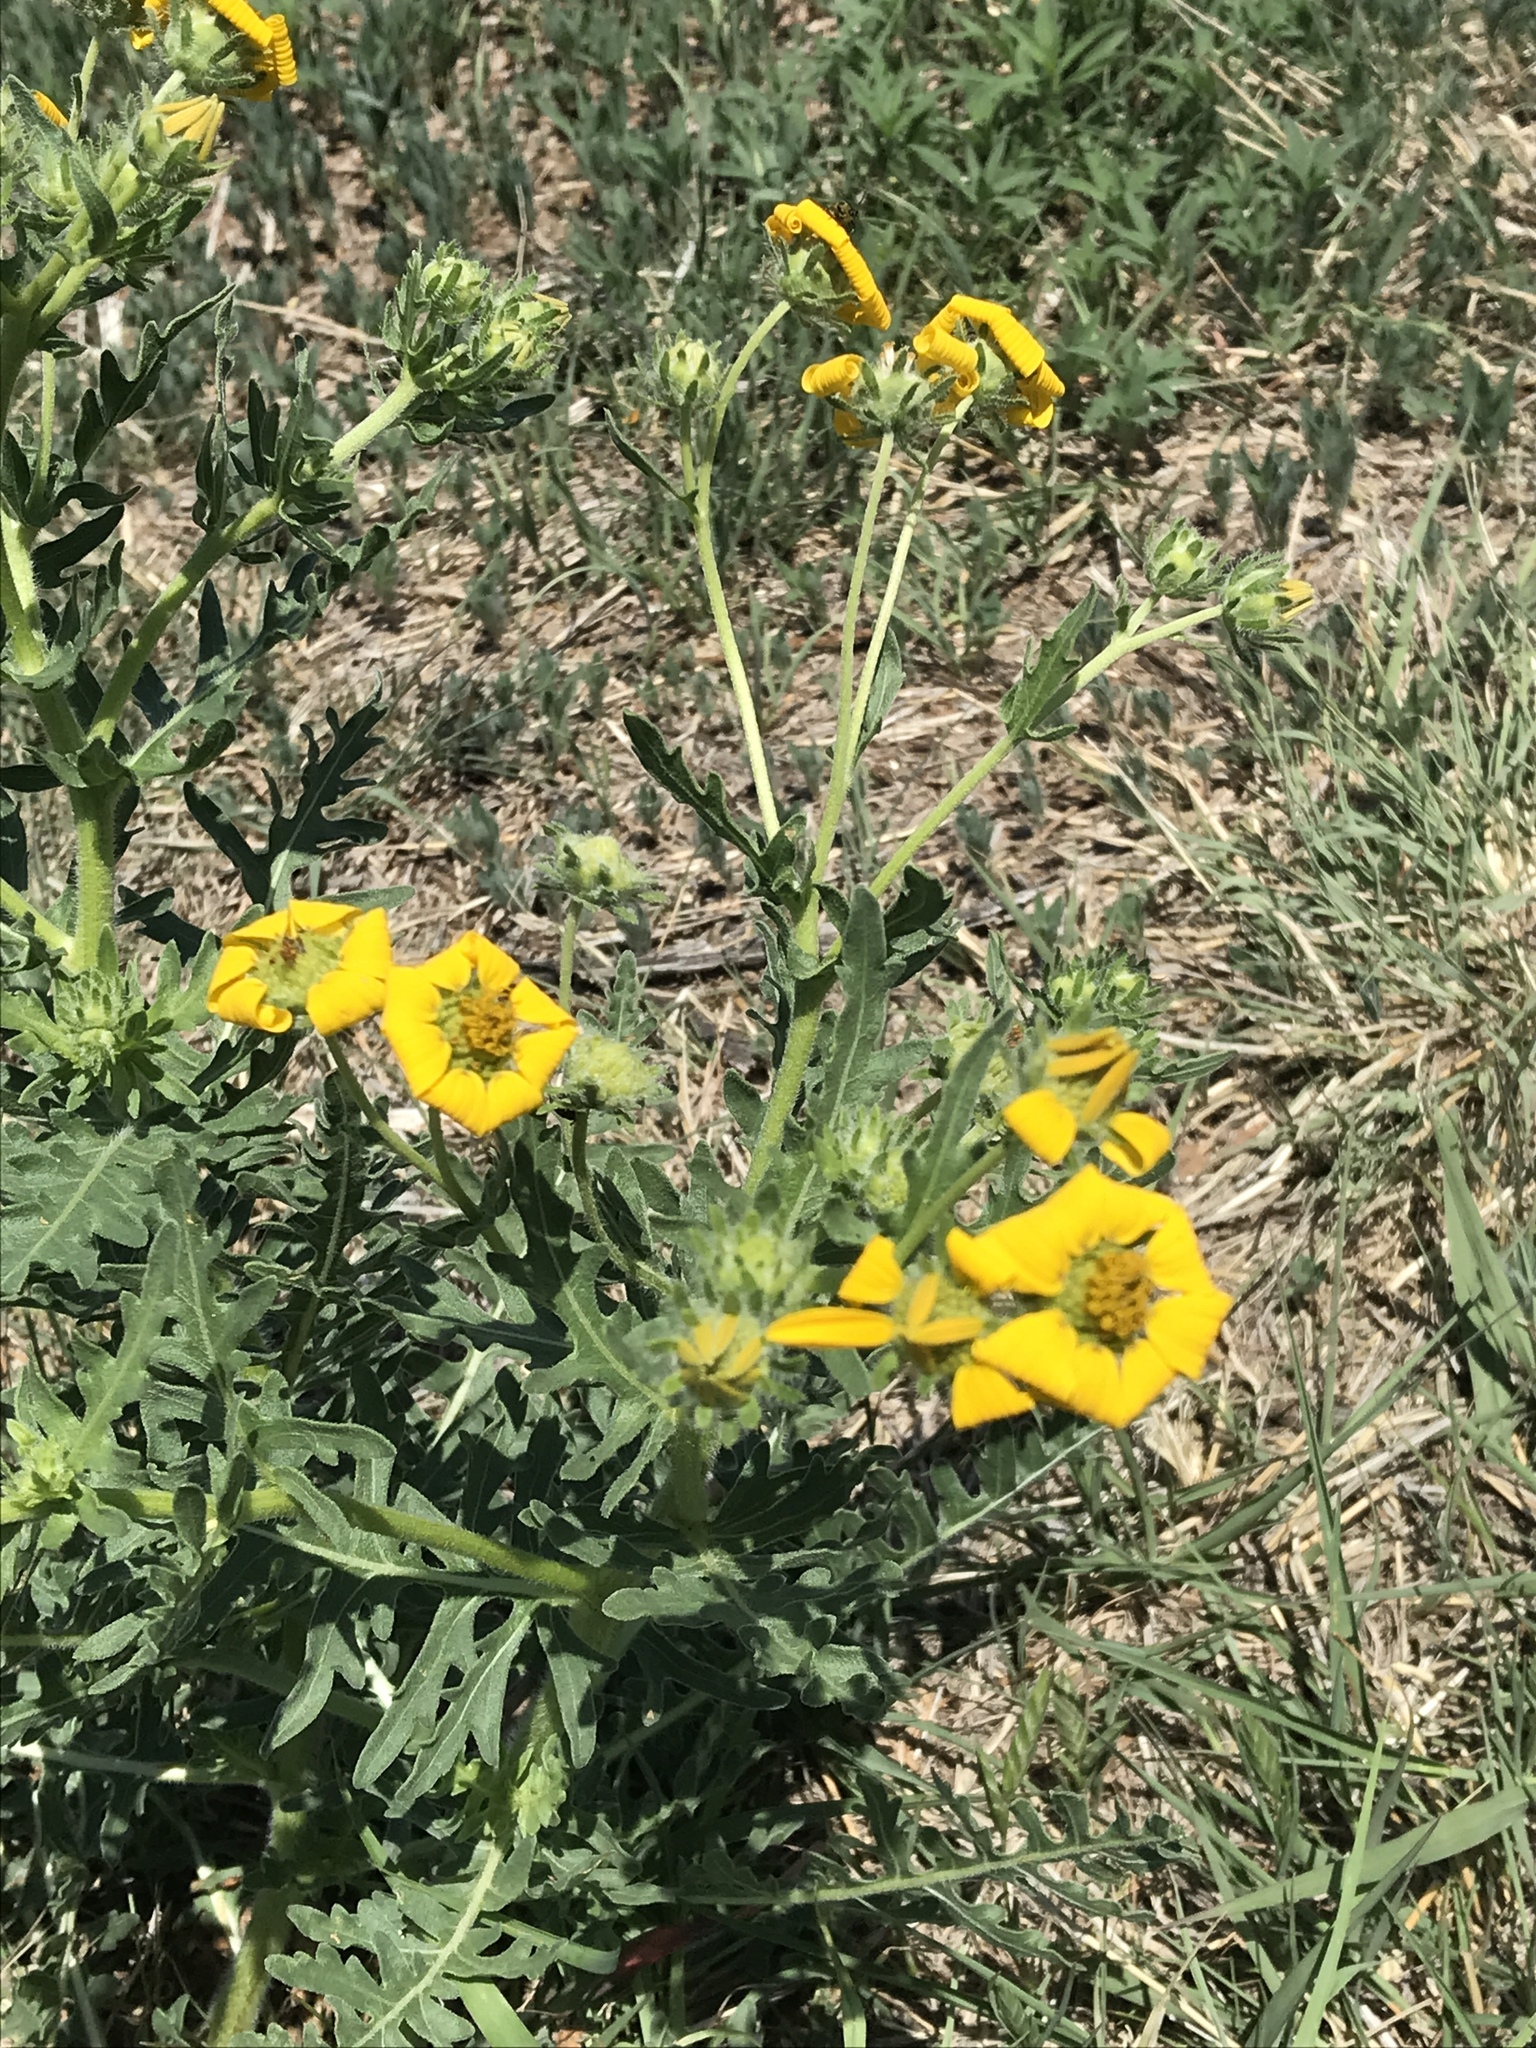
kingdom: Plantae
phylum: Tracheophyta
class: Magnoliopsida
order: Asterales
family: Asteraceae
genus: Engelmannia
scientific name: Engelmannia peristenia
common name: Engelmann's daisy
